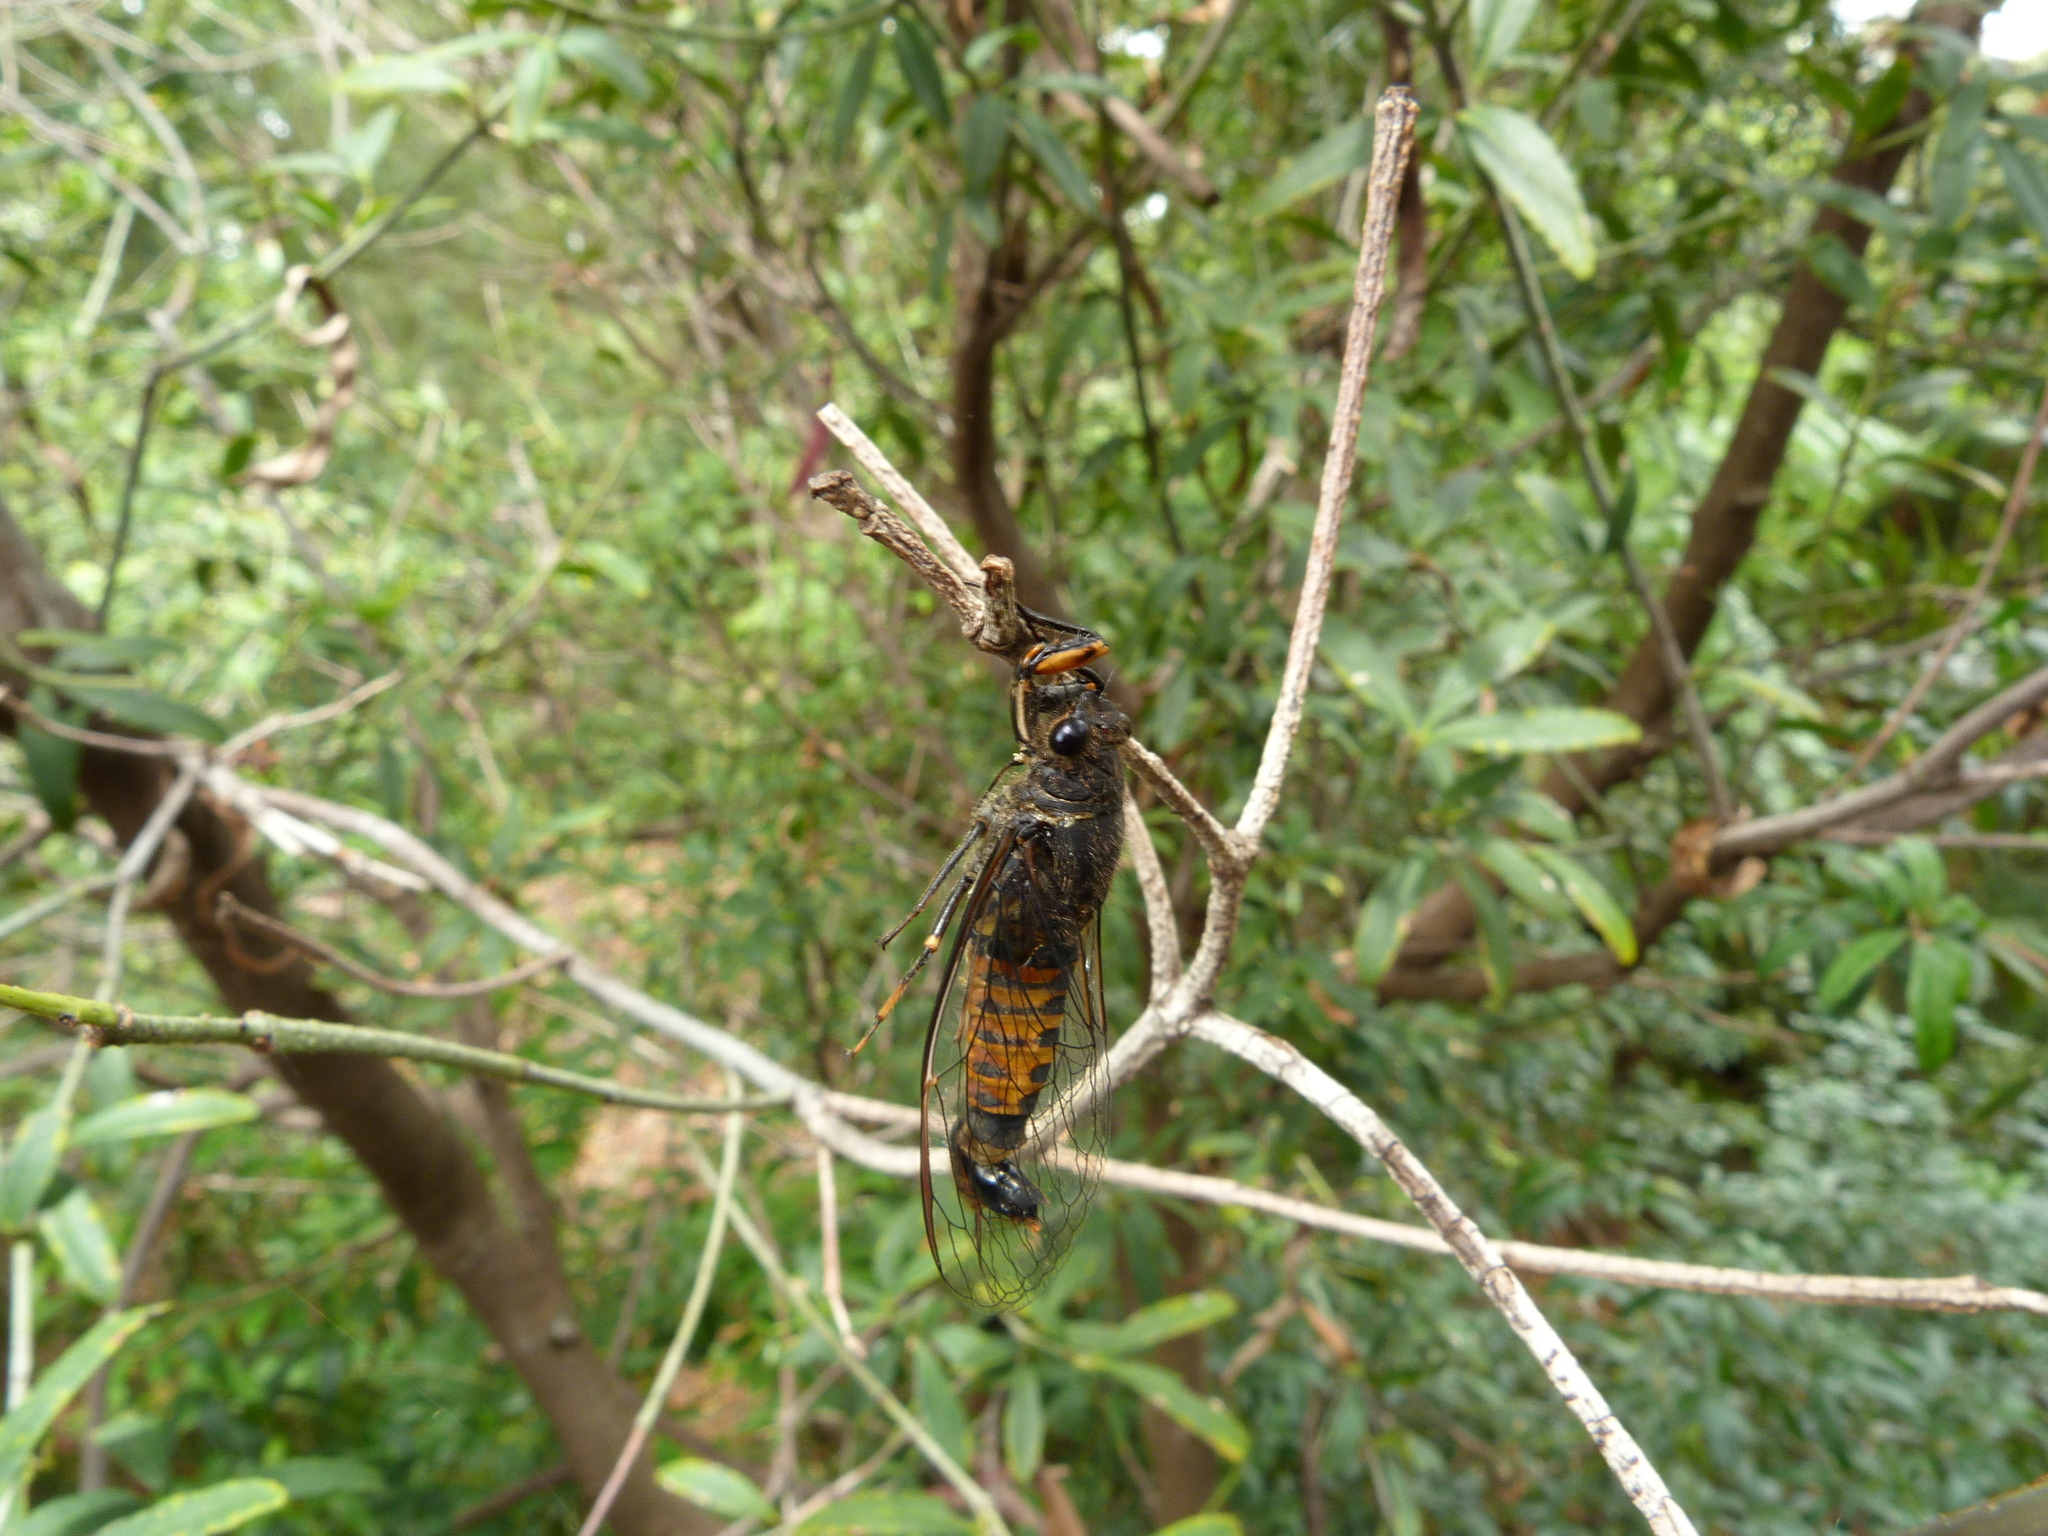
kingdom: Animalia
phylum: Arthropoda
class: Insecta
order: Hemiptera
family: Cicadidae
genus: Yoyetta
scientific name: Yoyetta robertsonae
